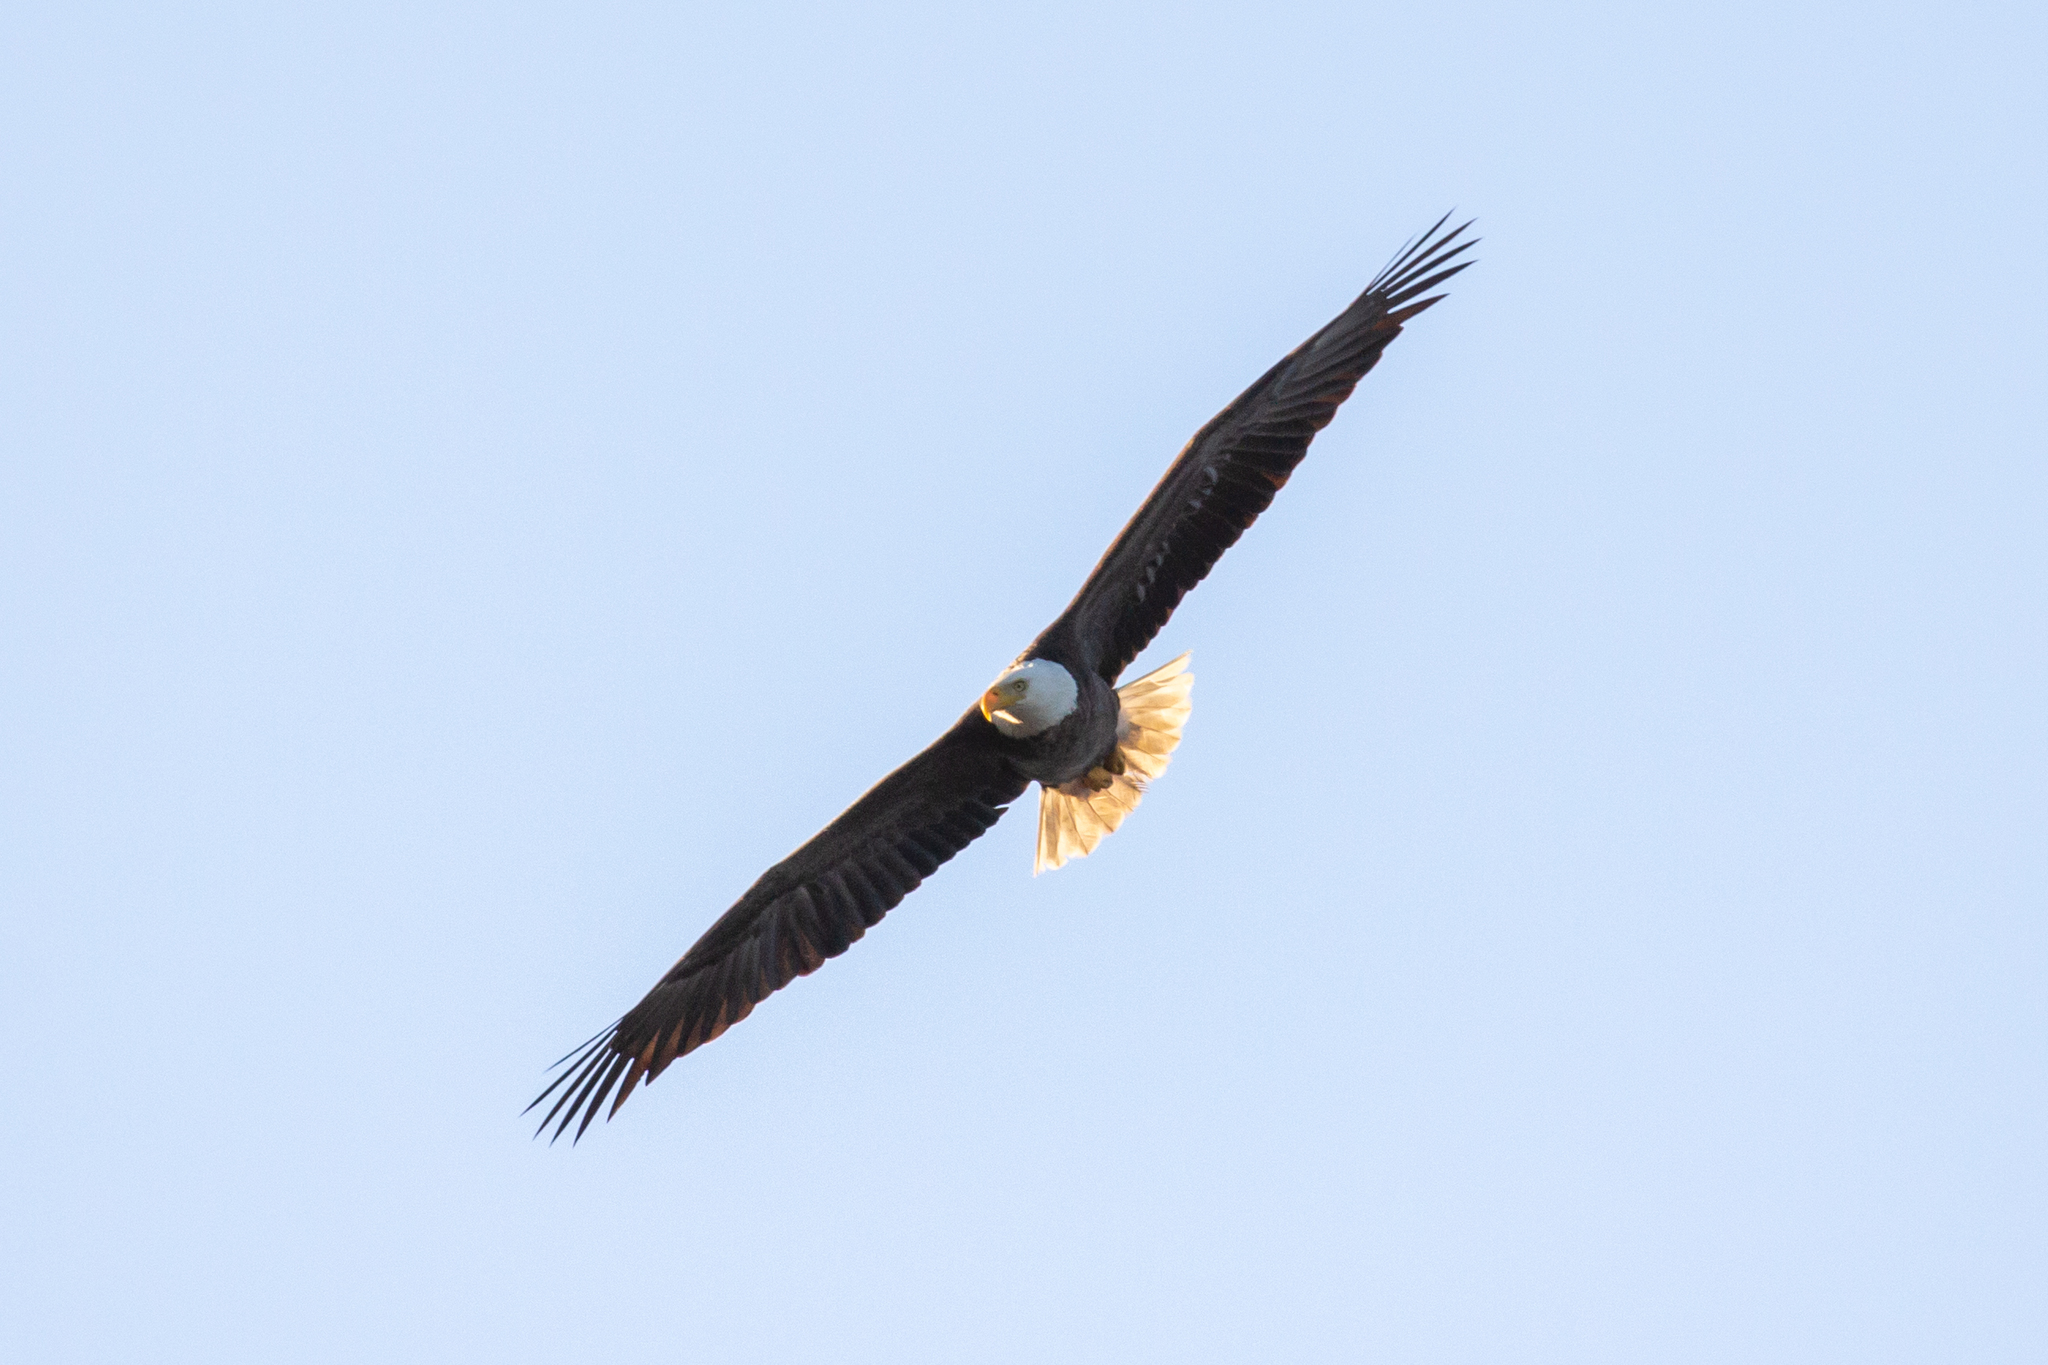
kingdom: Animalia
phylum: Chordata
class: Aves
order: Accipitriformes
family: Accipitridae
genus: Haliaeetus
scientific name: Haliaeetus leucocephalus
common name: Bald eagle
